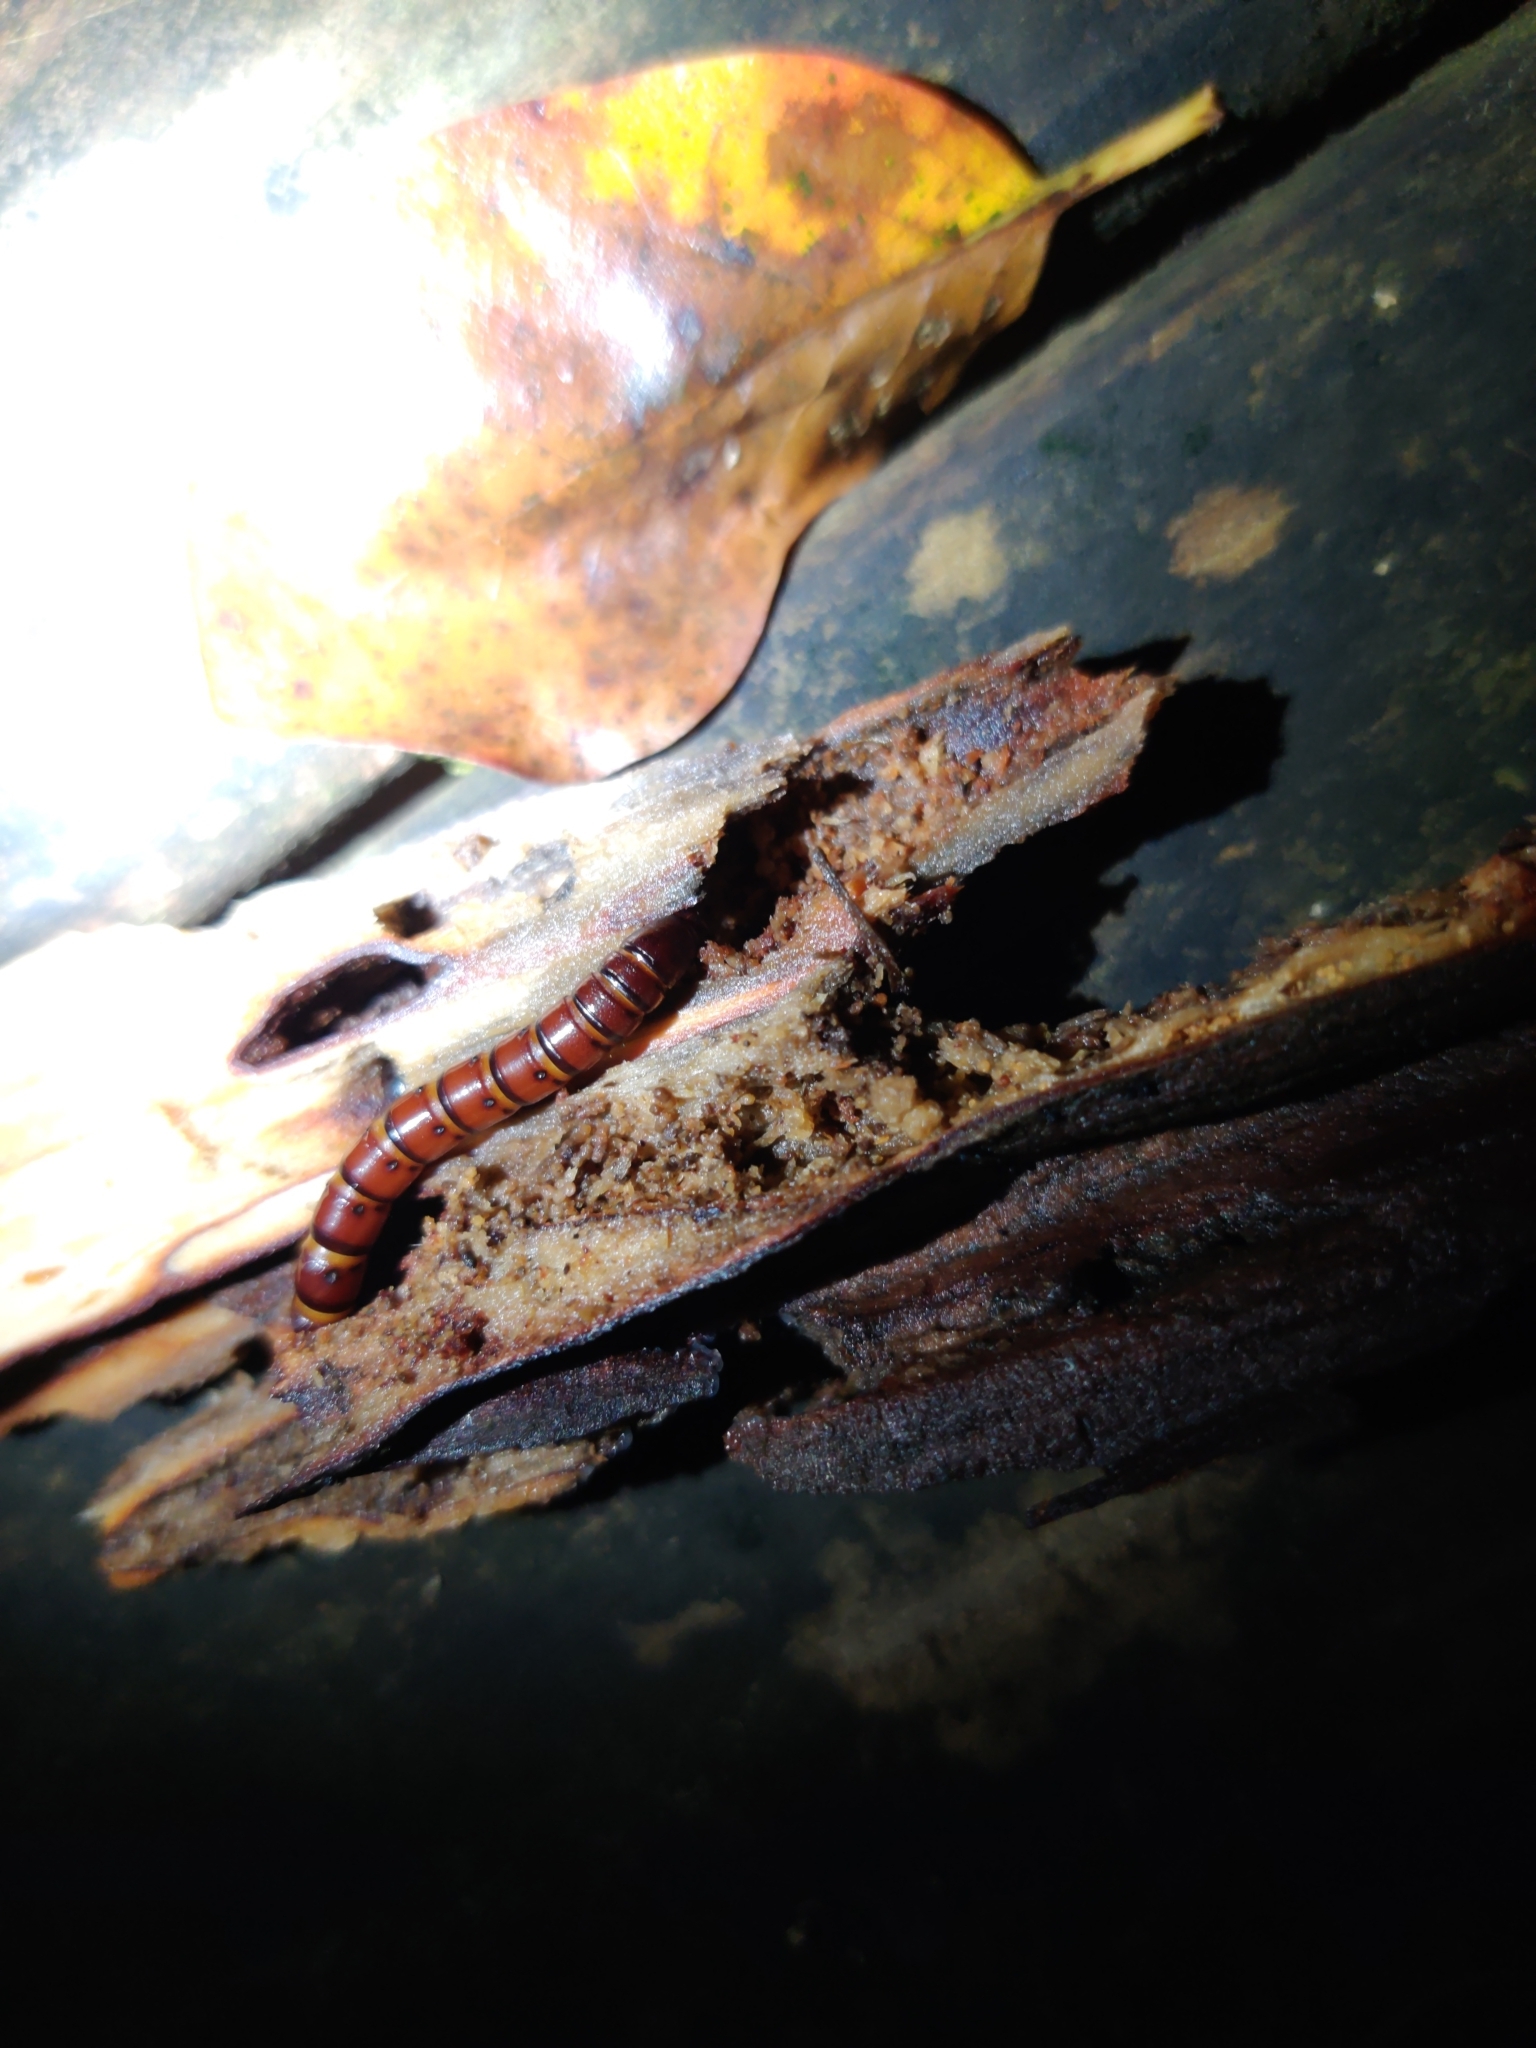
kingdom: Animalia
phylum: Arthropoda
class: Insecta
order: Coleoptera
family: Callirhipidae
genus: Zenoa
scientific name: Zenoa picea
